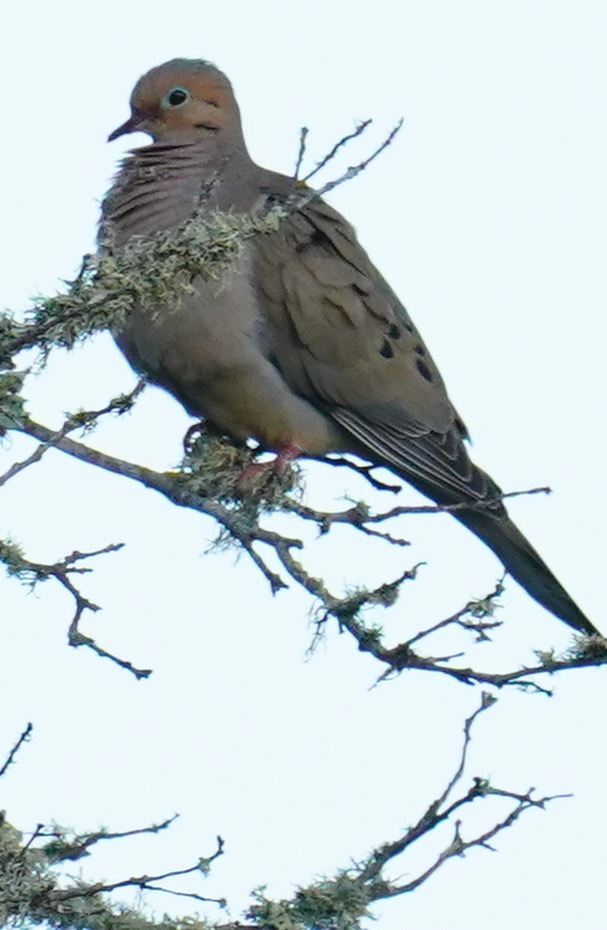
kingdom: Animalia
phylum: Chordata
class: Aves
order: Columbiformes
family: Columbidae
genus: Zenaida
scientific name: Zenaida macroura
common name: Mourning dove
